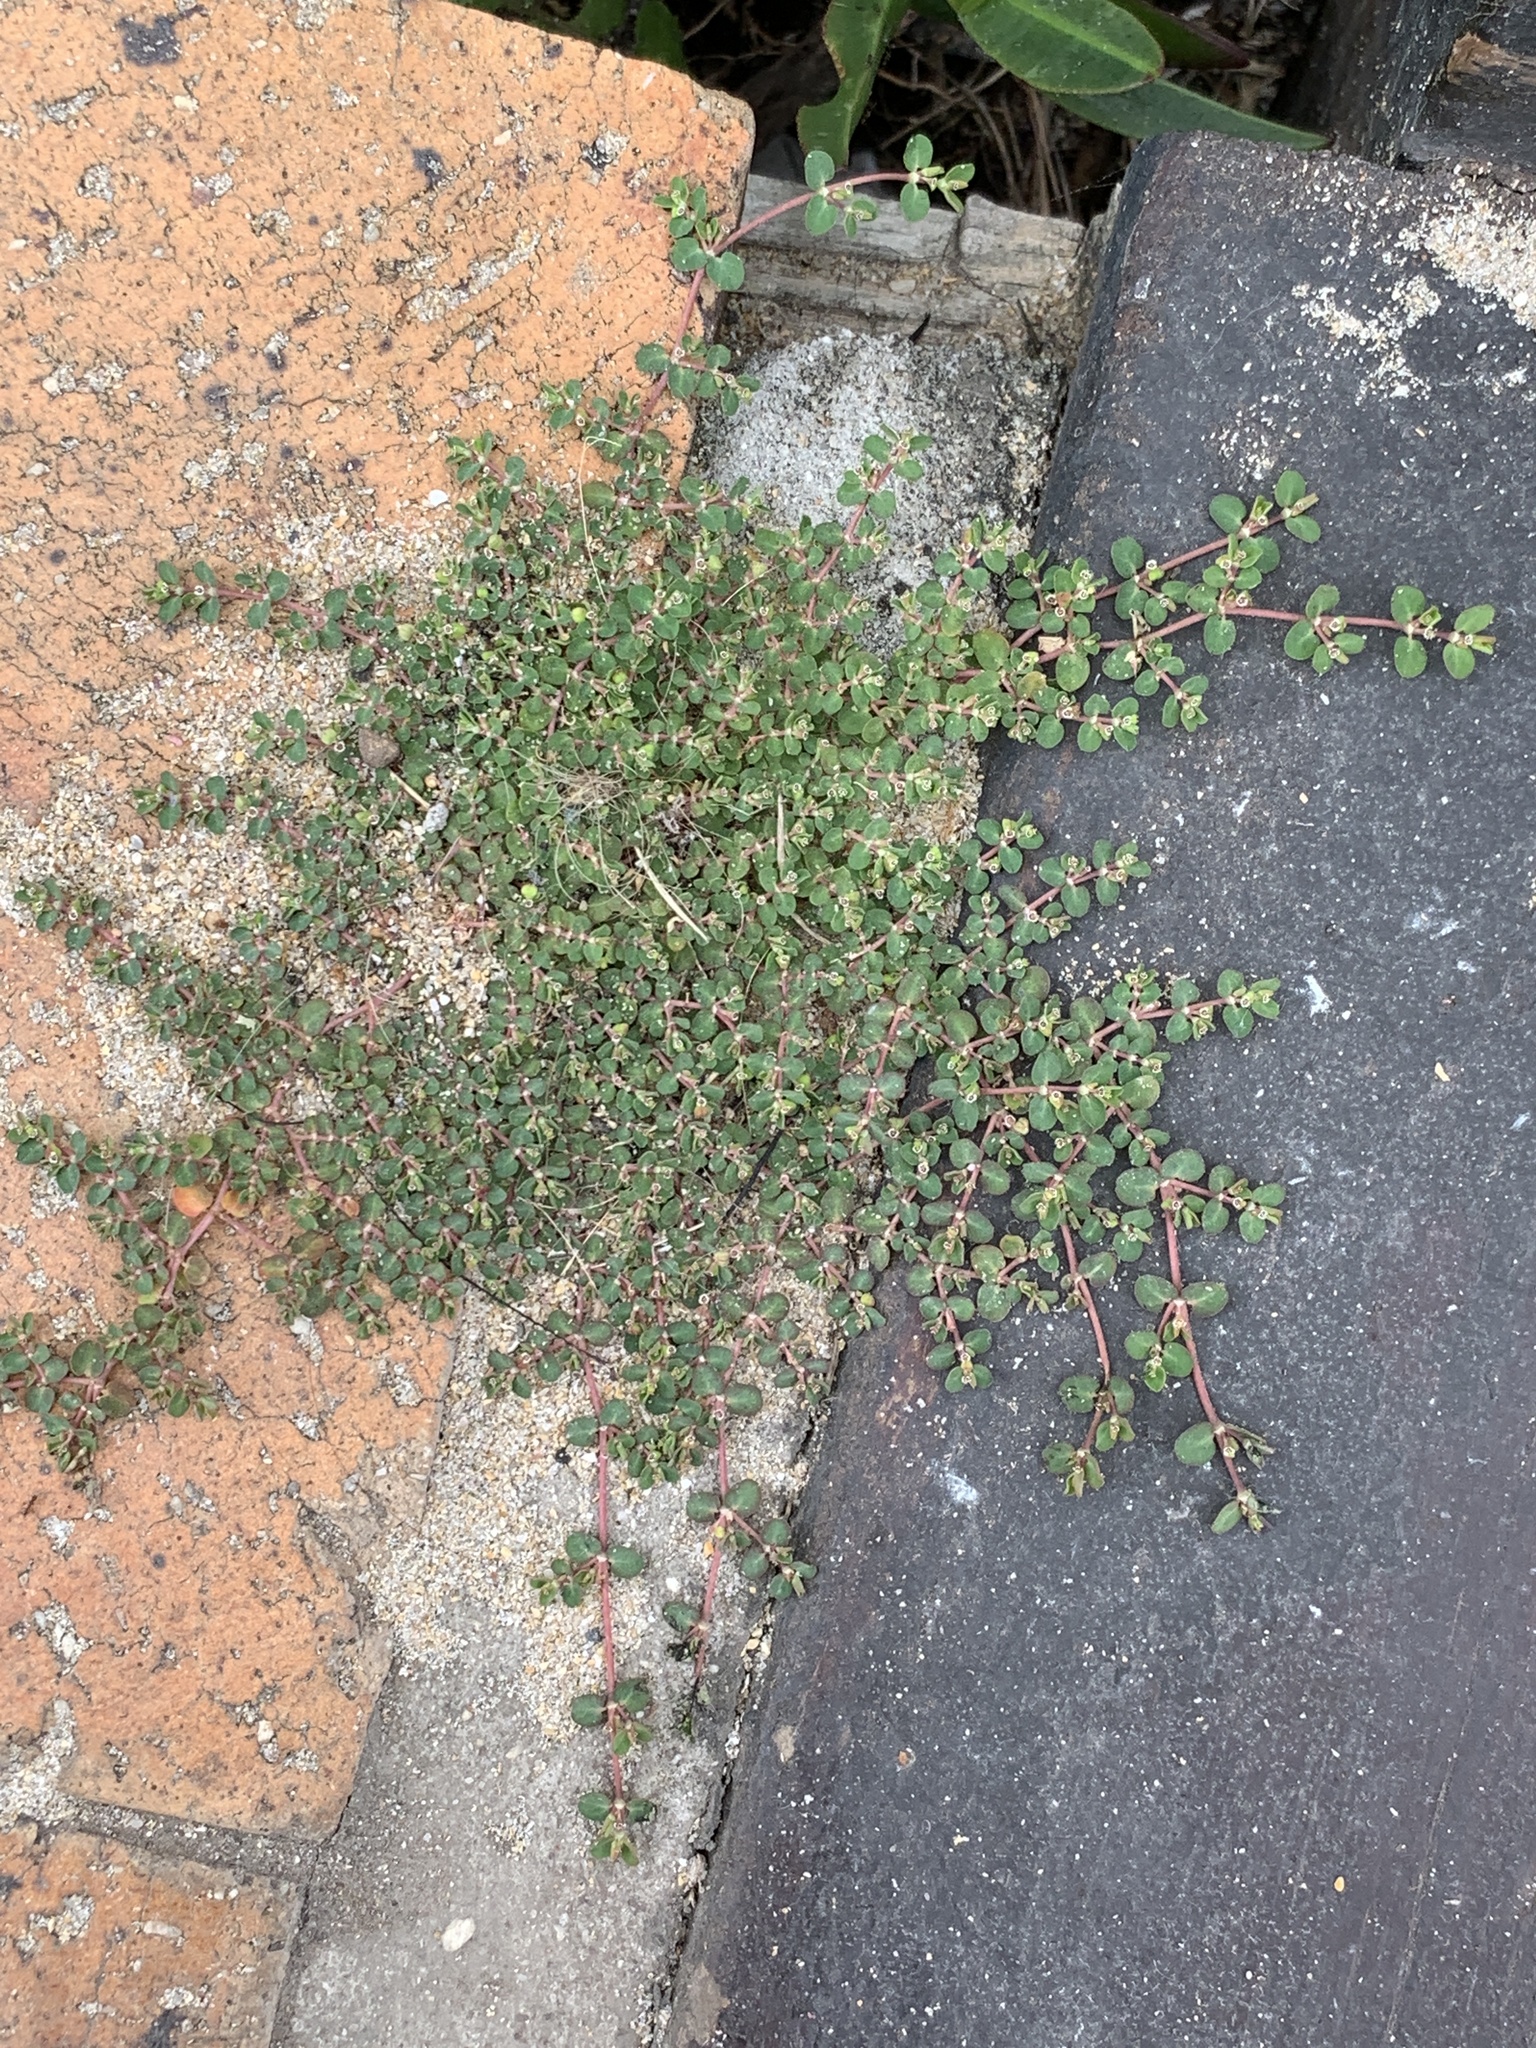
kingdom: Plantae
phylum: Tracheophyta
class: Magnoliopsida
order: Malpighiales
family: Euphorbiaceae
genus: Euphorbia
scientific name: Euphorbia serpens
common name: Matted sandmat
